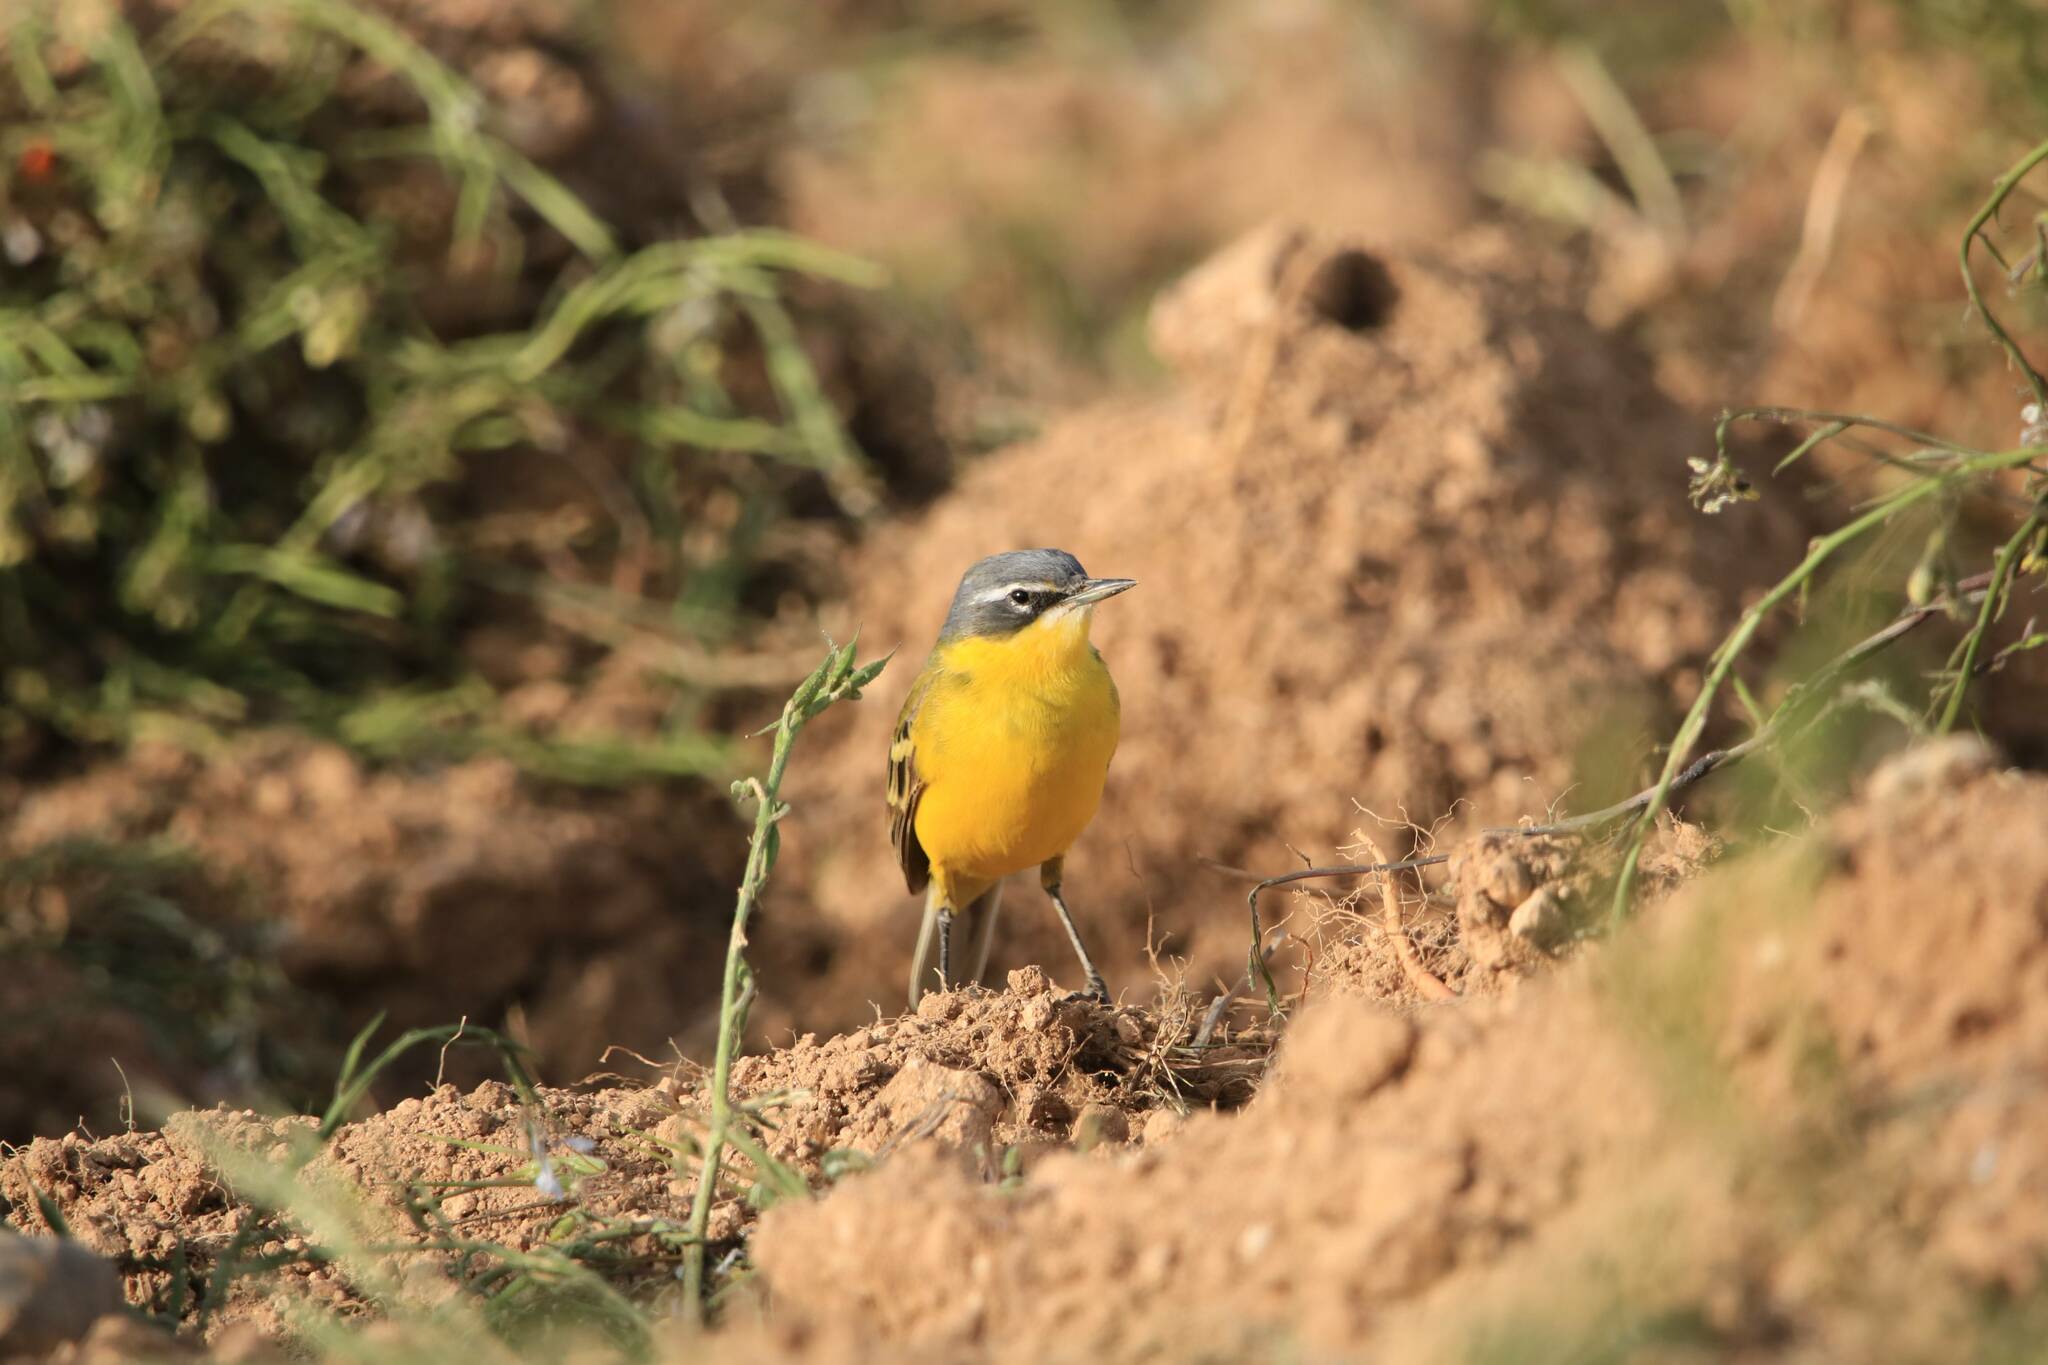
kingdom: Animalia
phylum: Chordata
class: Aves
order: Passeriformes
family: Motacillidae
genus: Motacilla
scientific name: Motacilla flava
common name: Western yellow wagtail
